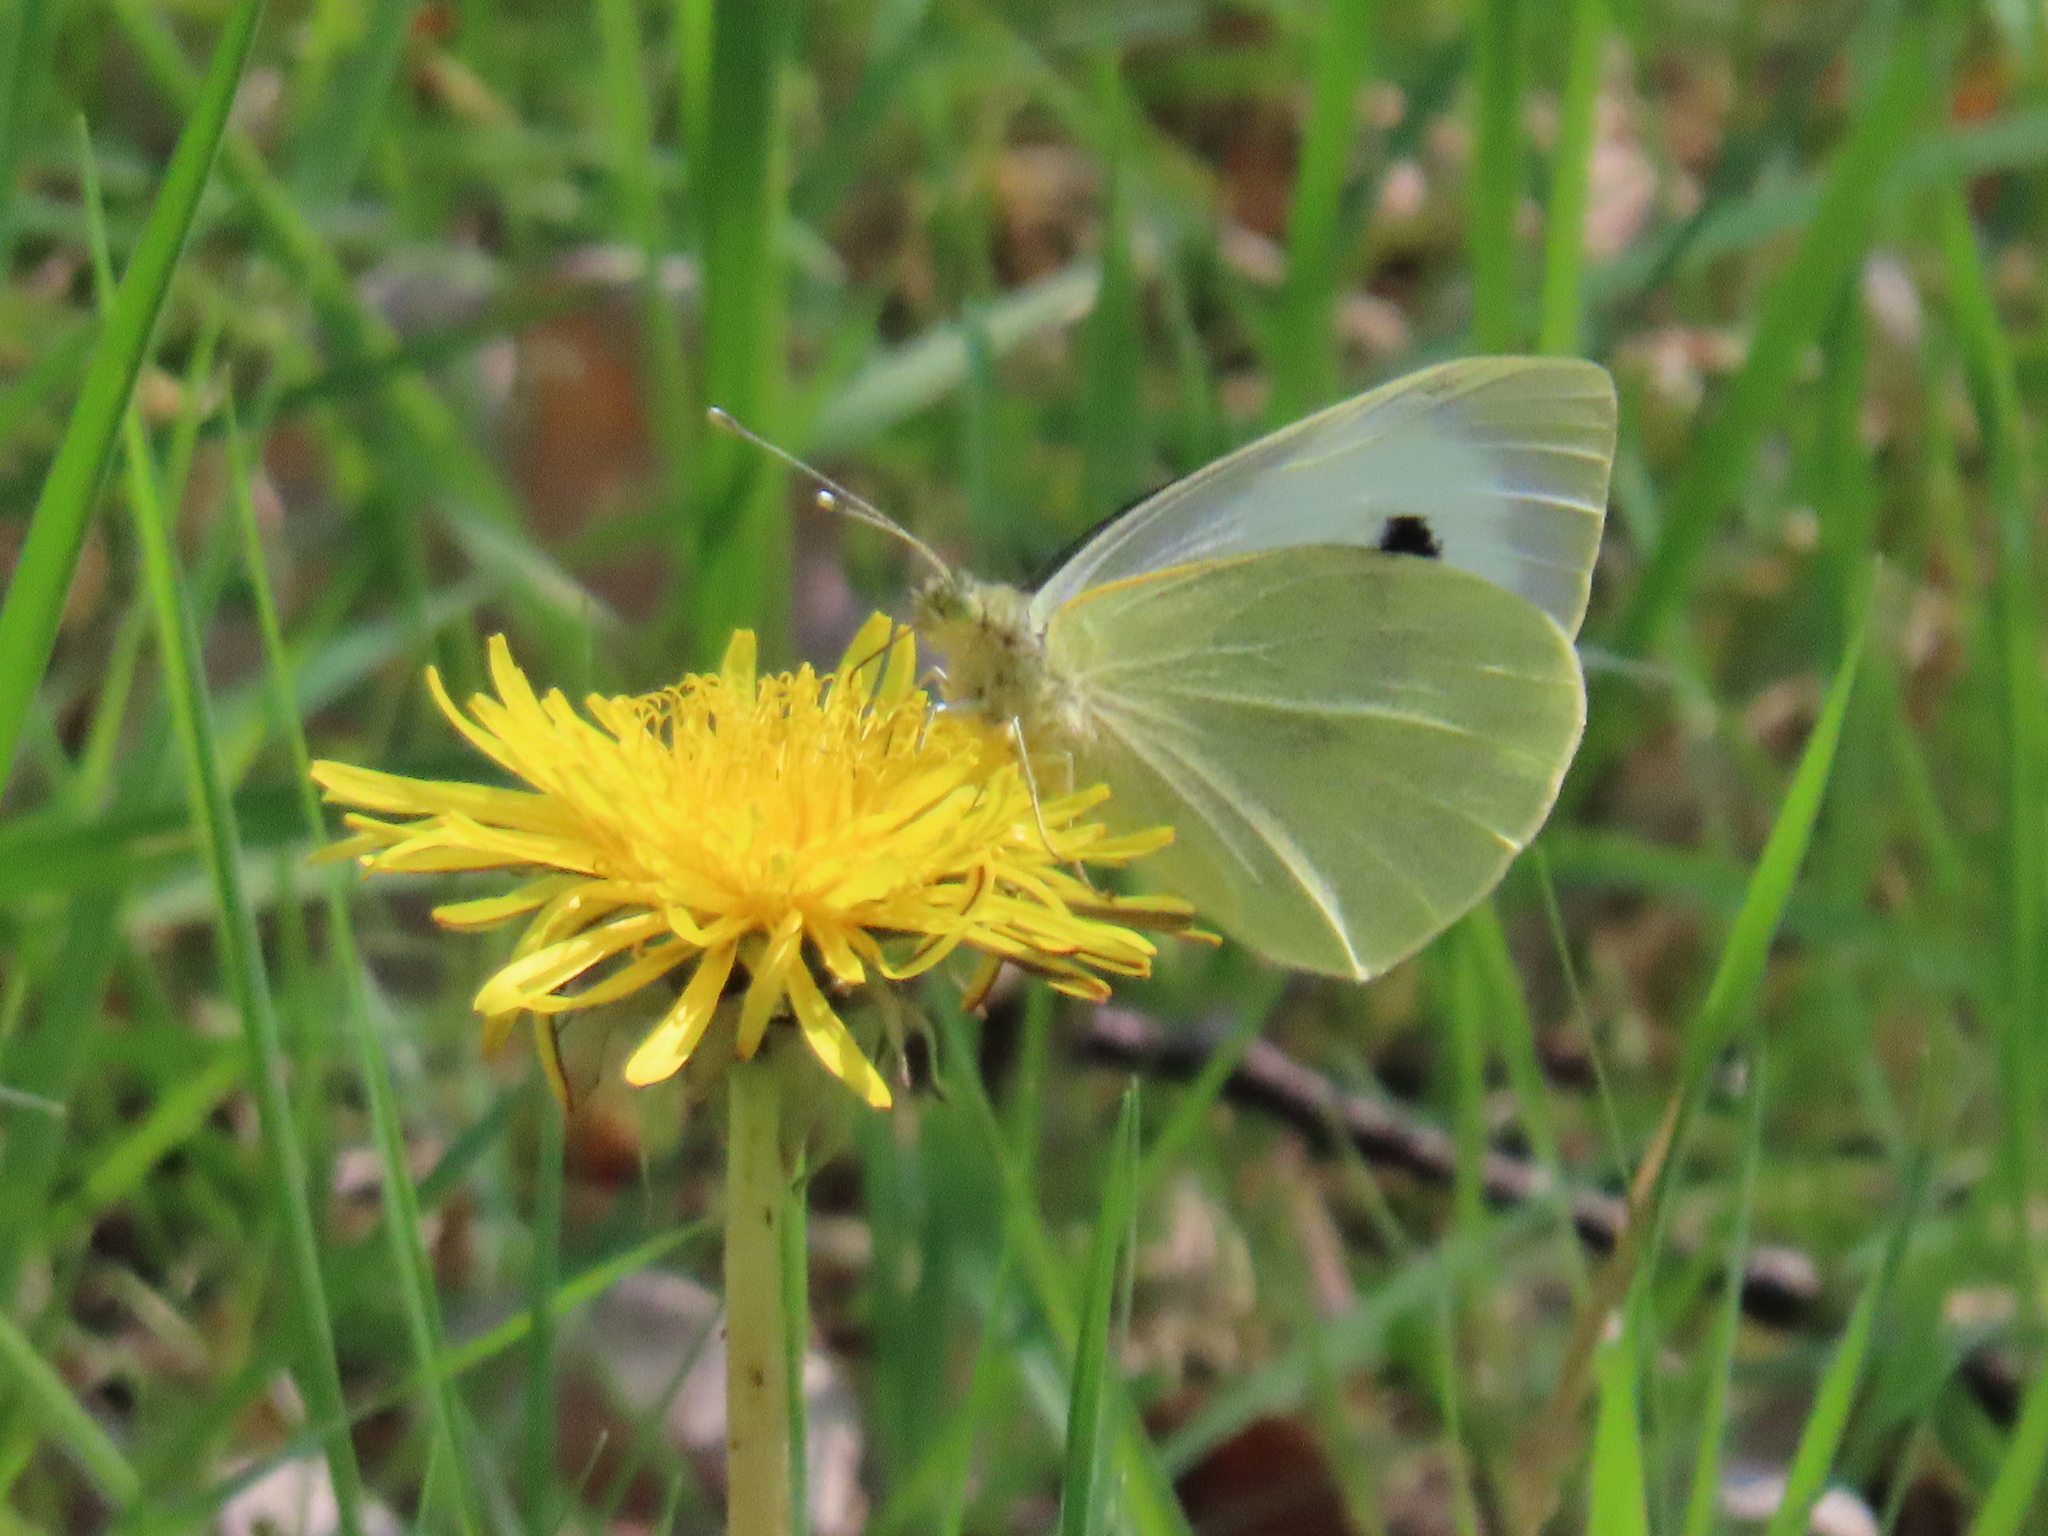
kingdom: Animalia
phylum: Arthropoda
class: Insecta
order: Lepidoptera
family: Pieridae
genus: Pieris
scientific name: Pieris brassicae
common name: Large white
